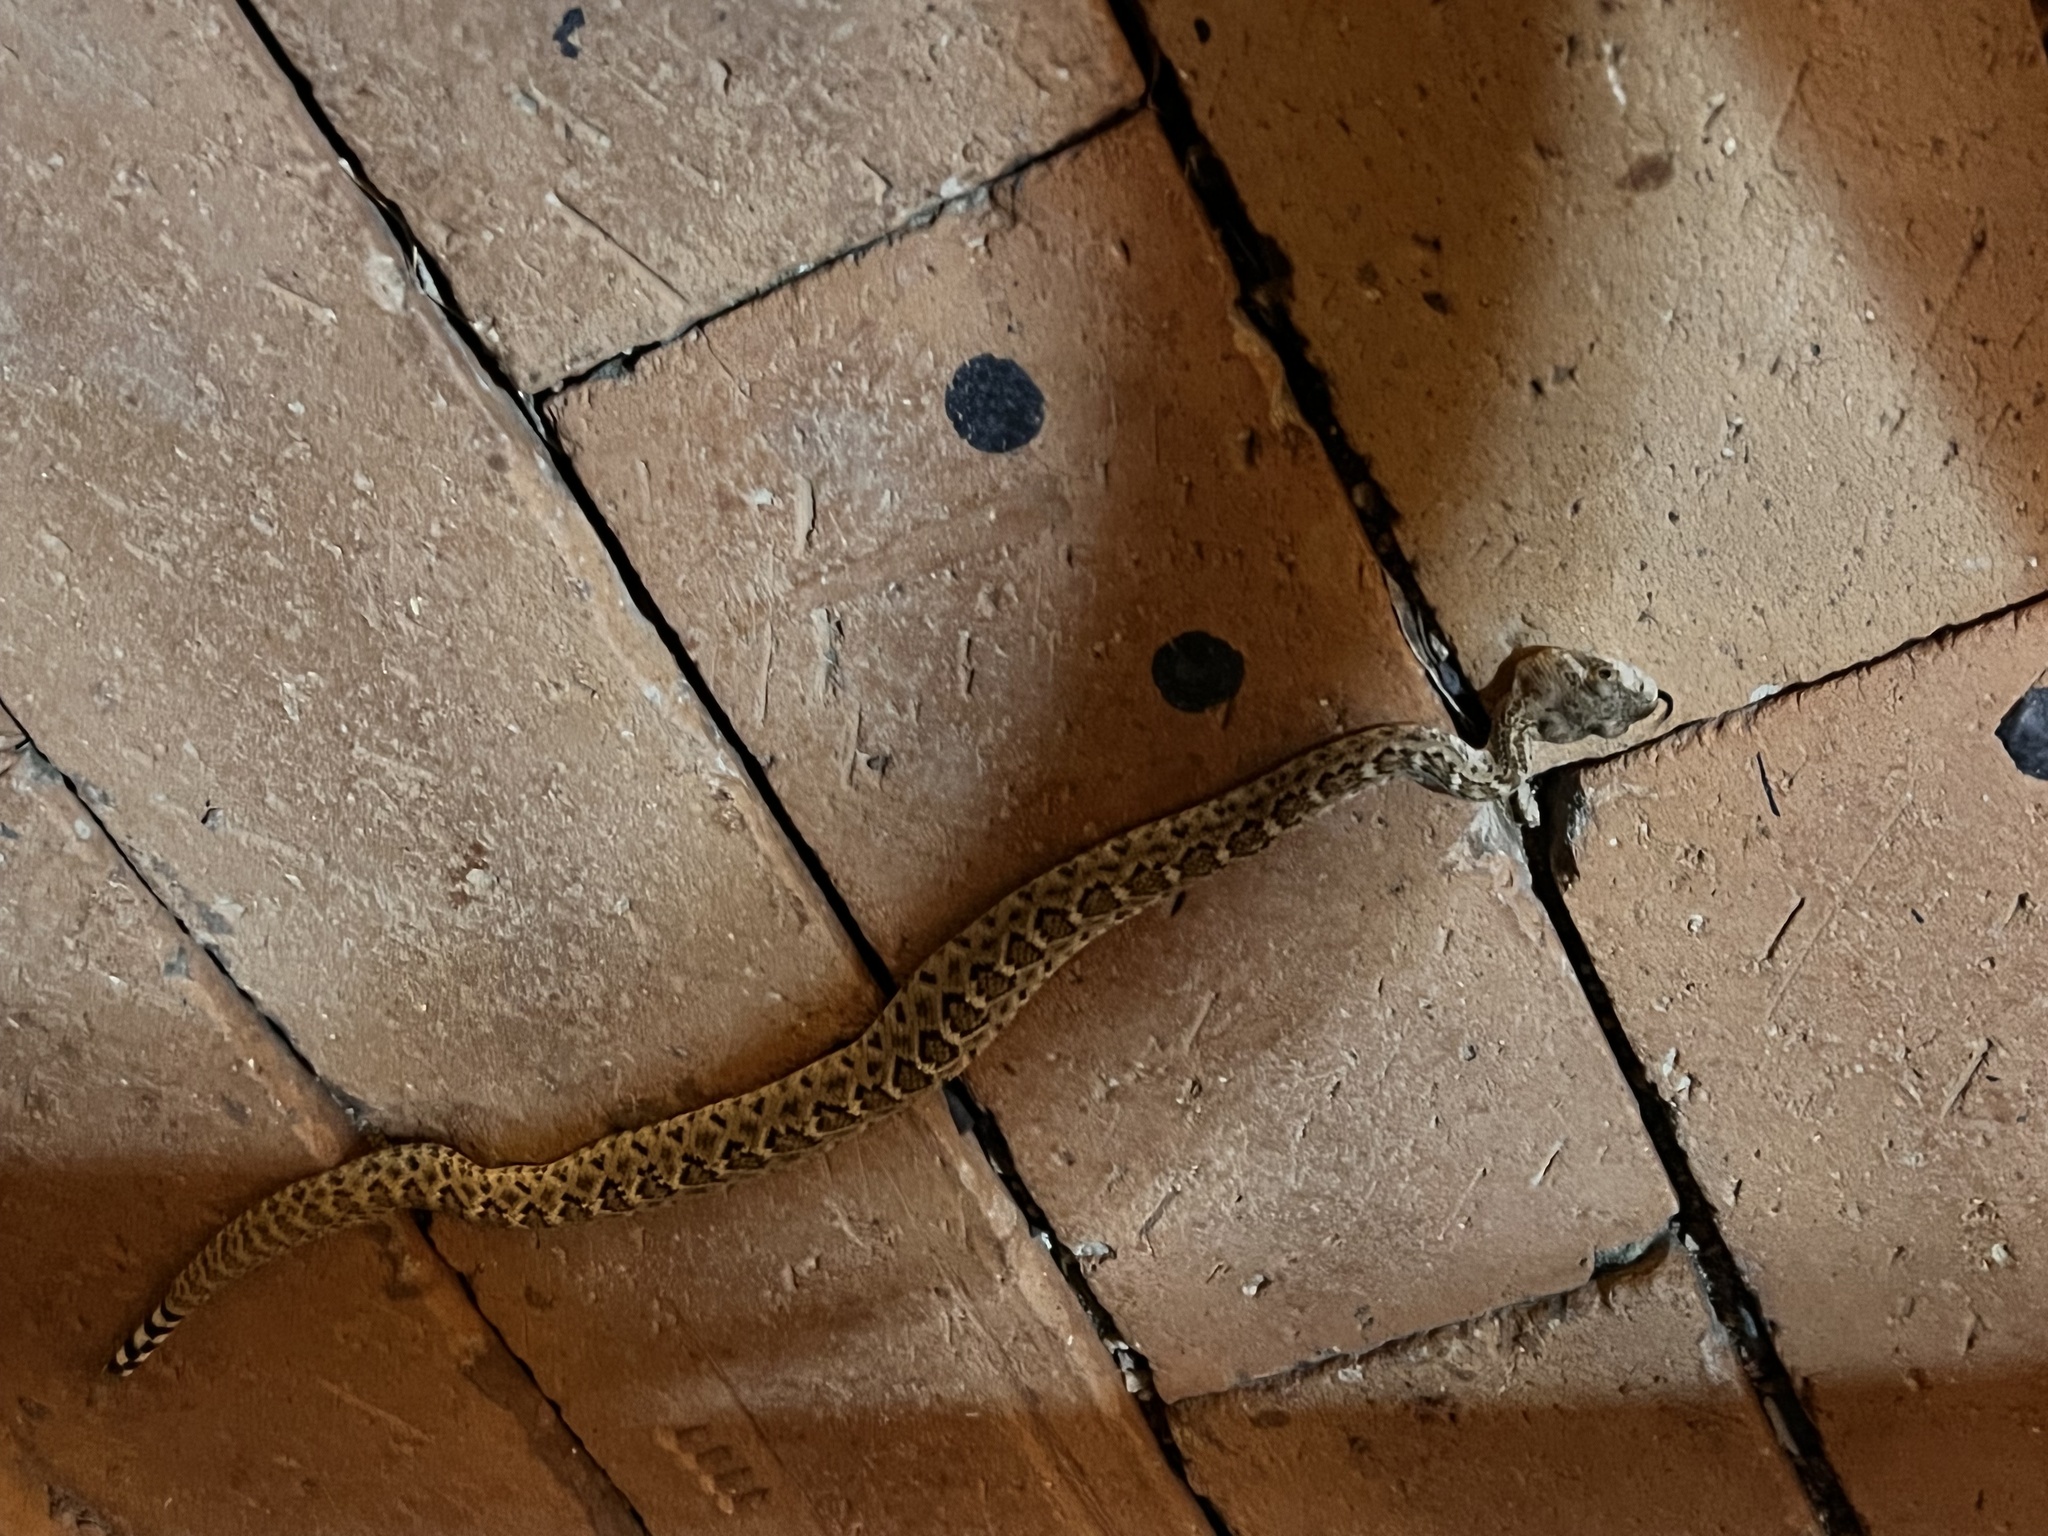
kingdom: Animalia
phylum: Chordata
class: Squamata
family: Viperidae
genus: Crotalus
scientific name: Crotalus atrox
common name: Western diamond-backed rattlesnake
